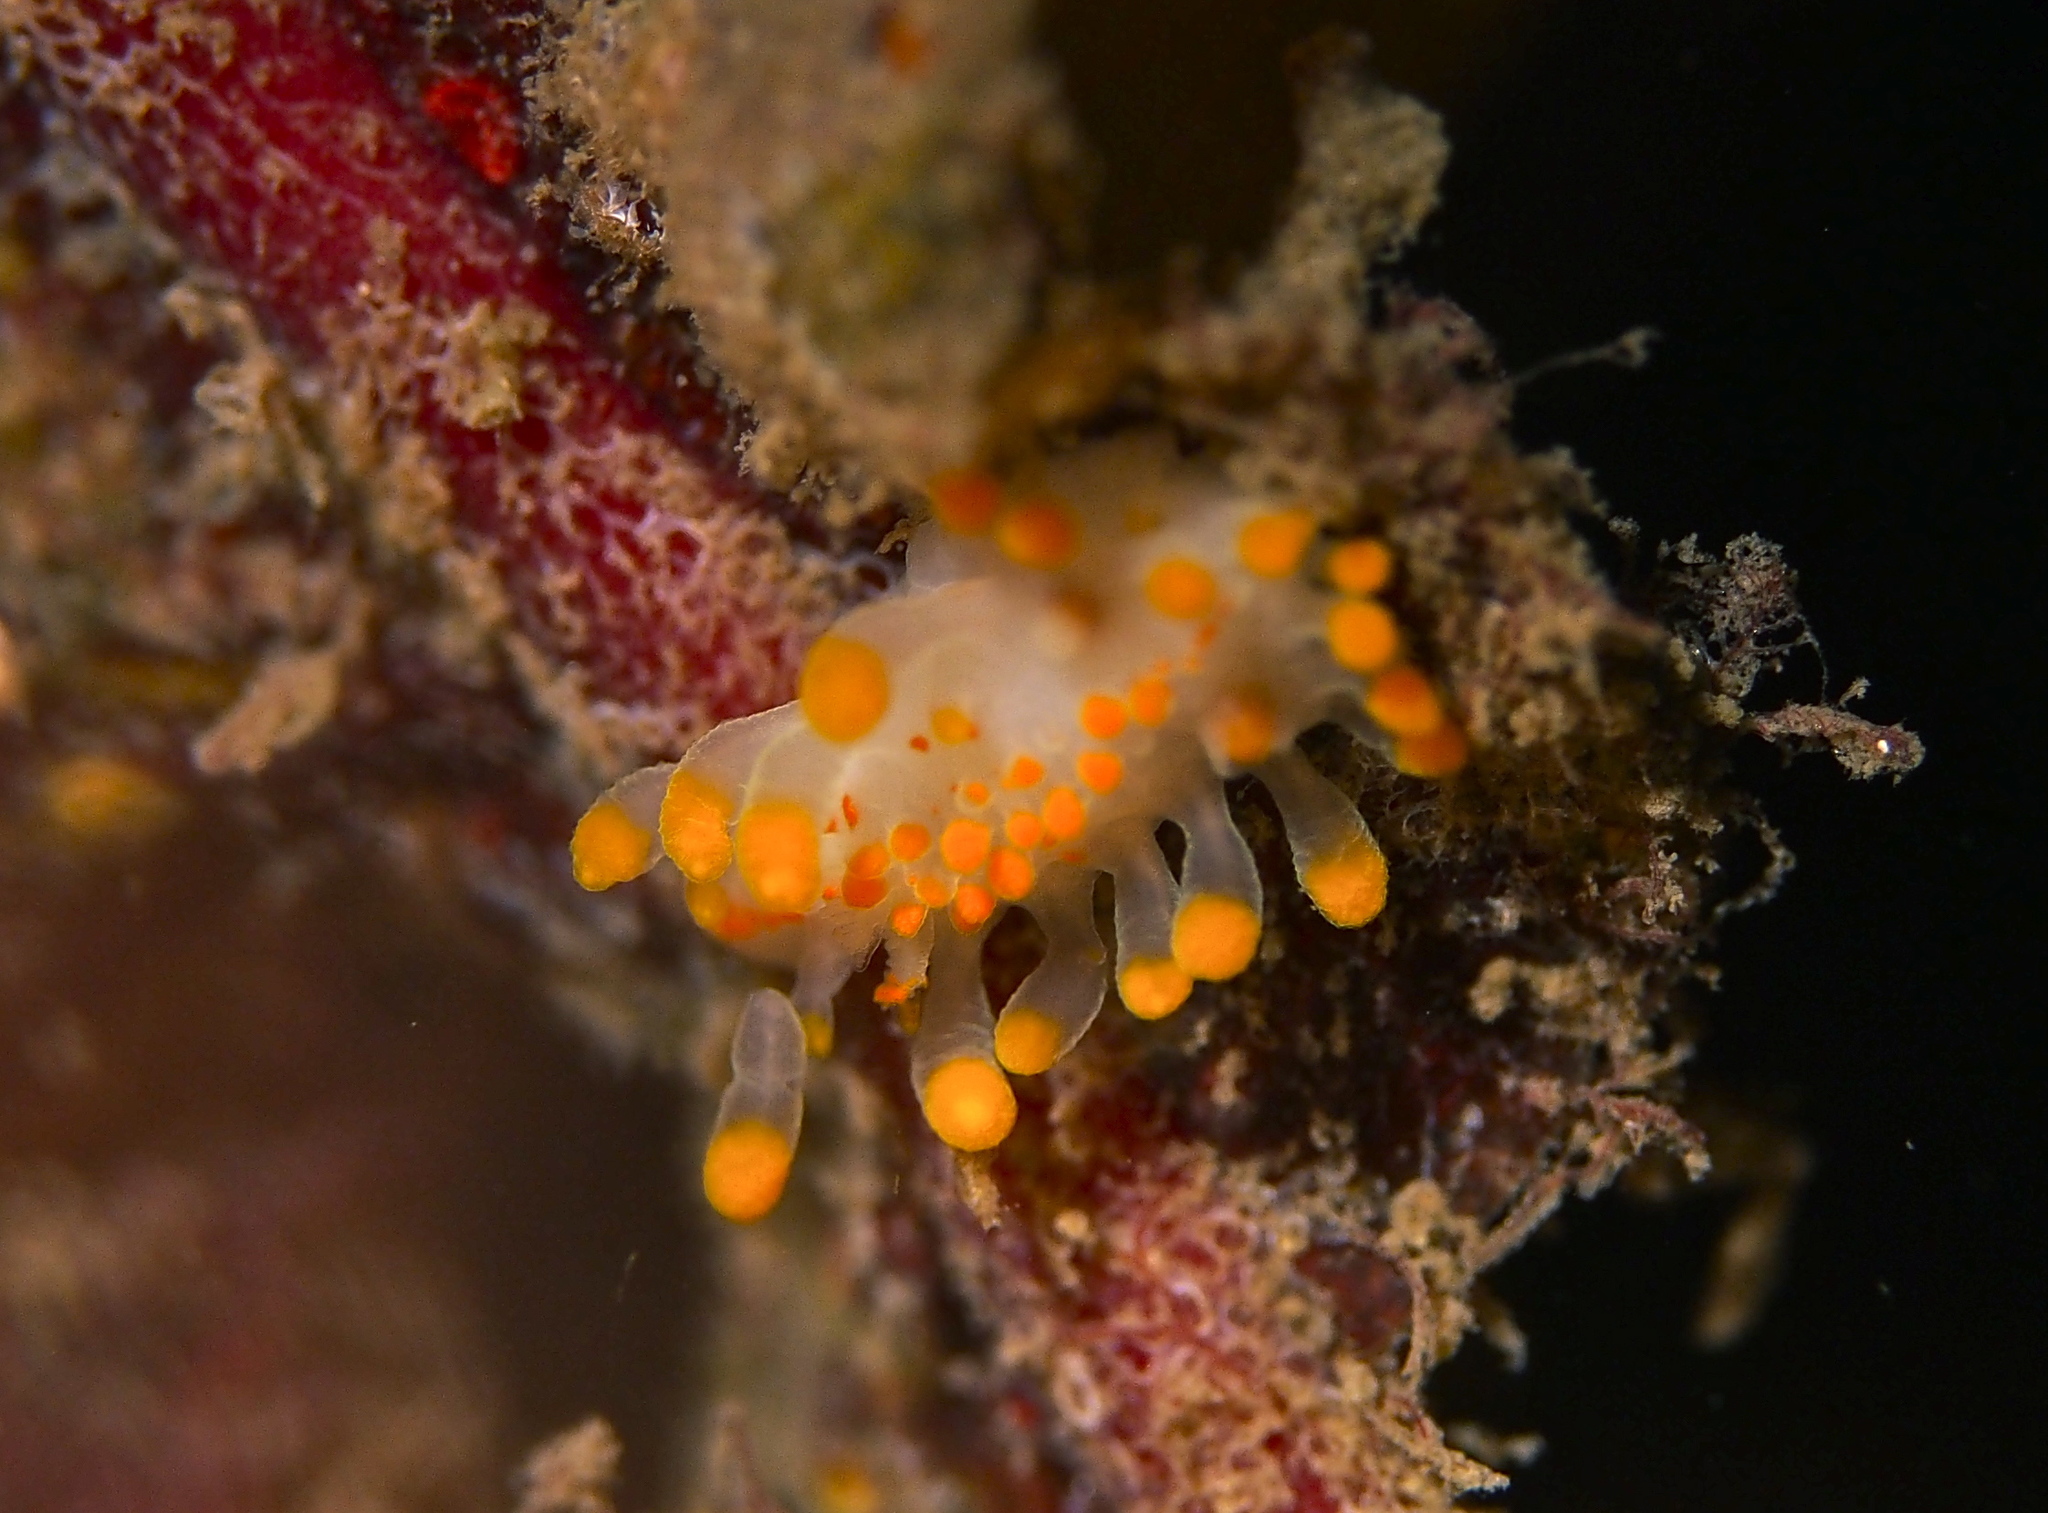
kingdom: Animalia
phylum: Mollusca
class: Gastropoda
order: Nudibranchia
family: Polyceridae
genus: Limacia
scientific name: Limacia clavigera
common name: Orange-clubbed sea slug
